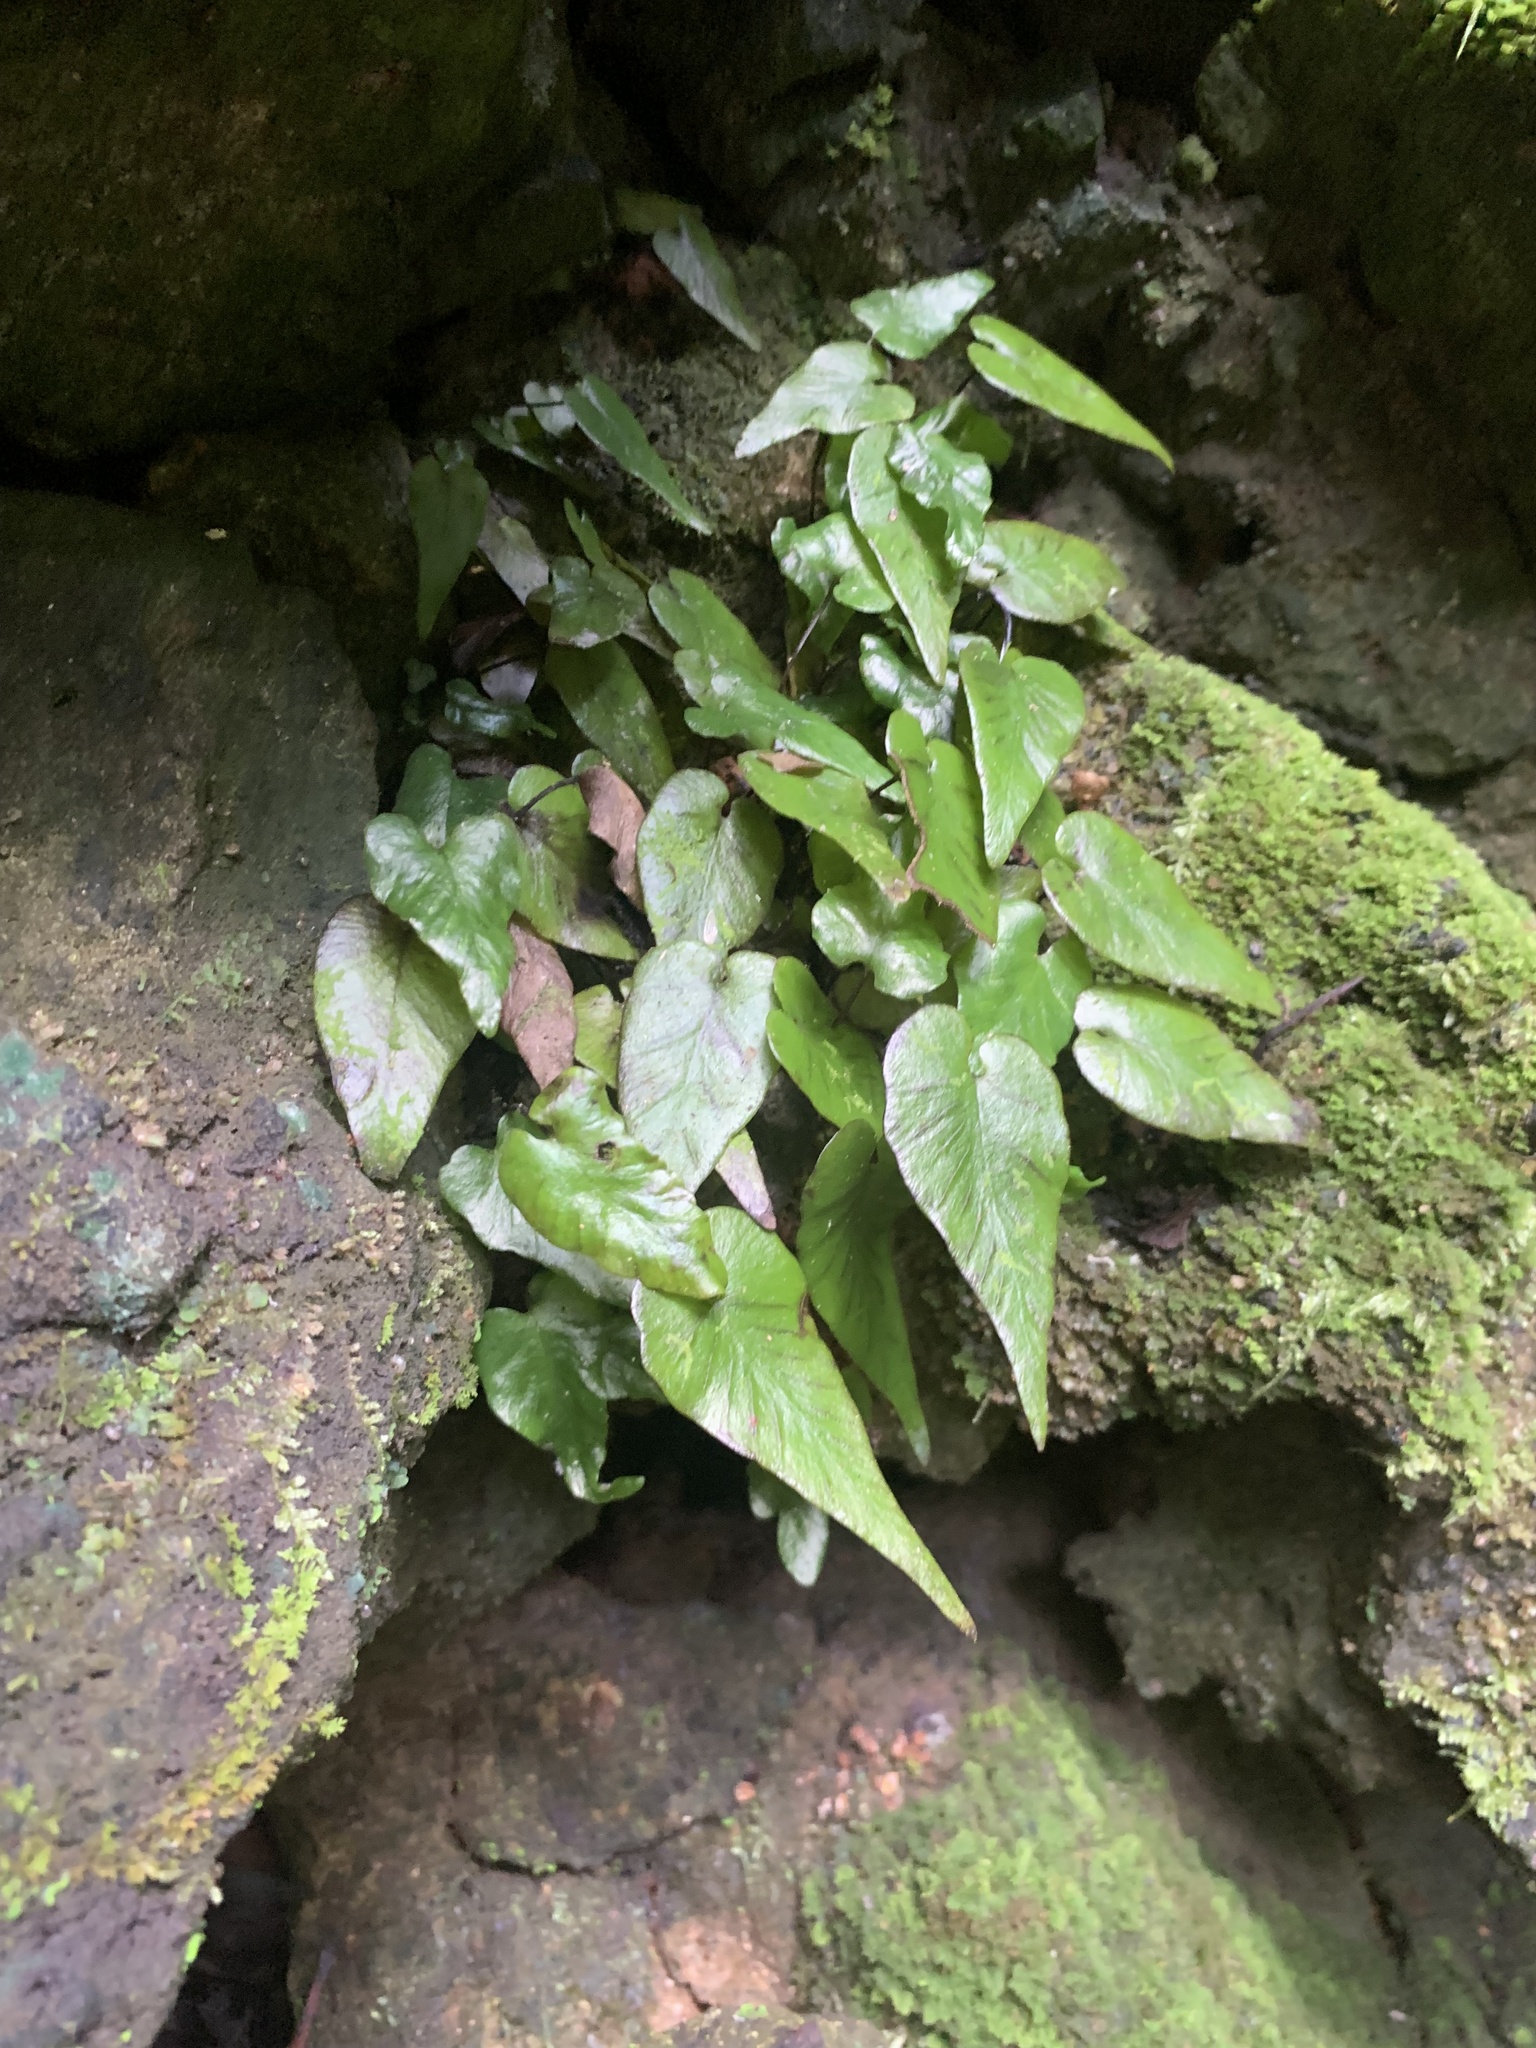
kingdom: Plantae
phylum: Tracheophyta
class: Polypodiopsida
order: Polypodiales
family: Aspleniaceae
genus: Hymenasplenium
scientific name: Hymenasplenium cardiophyllum
